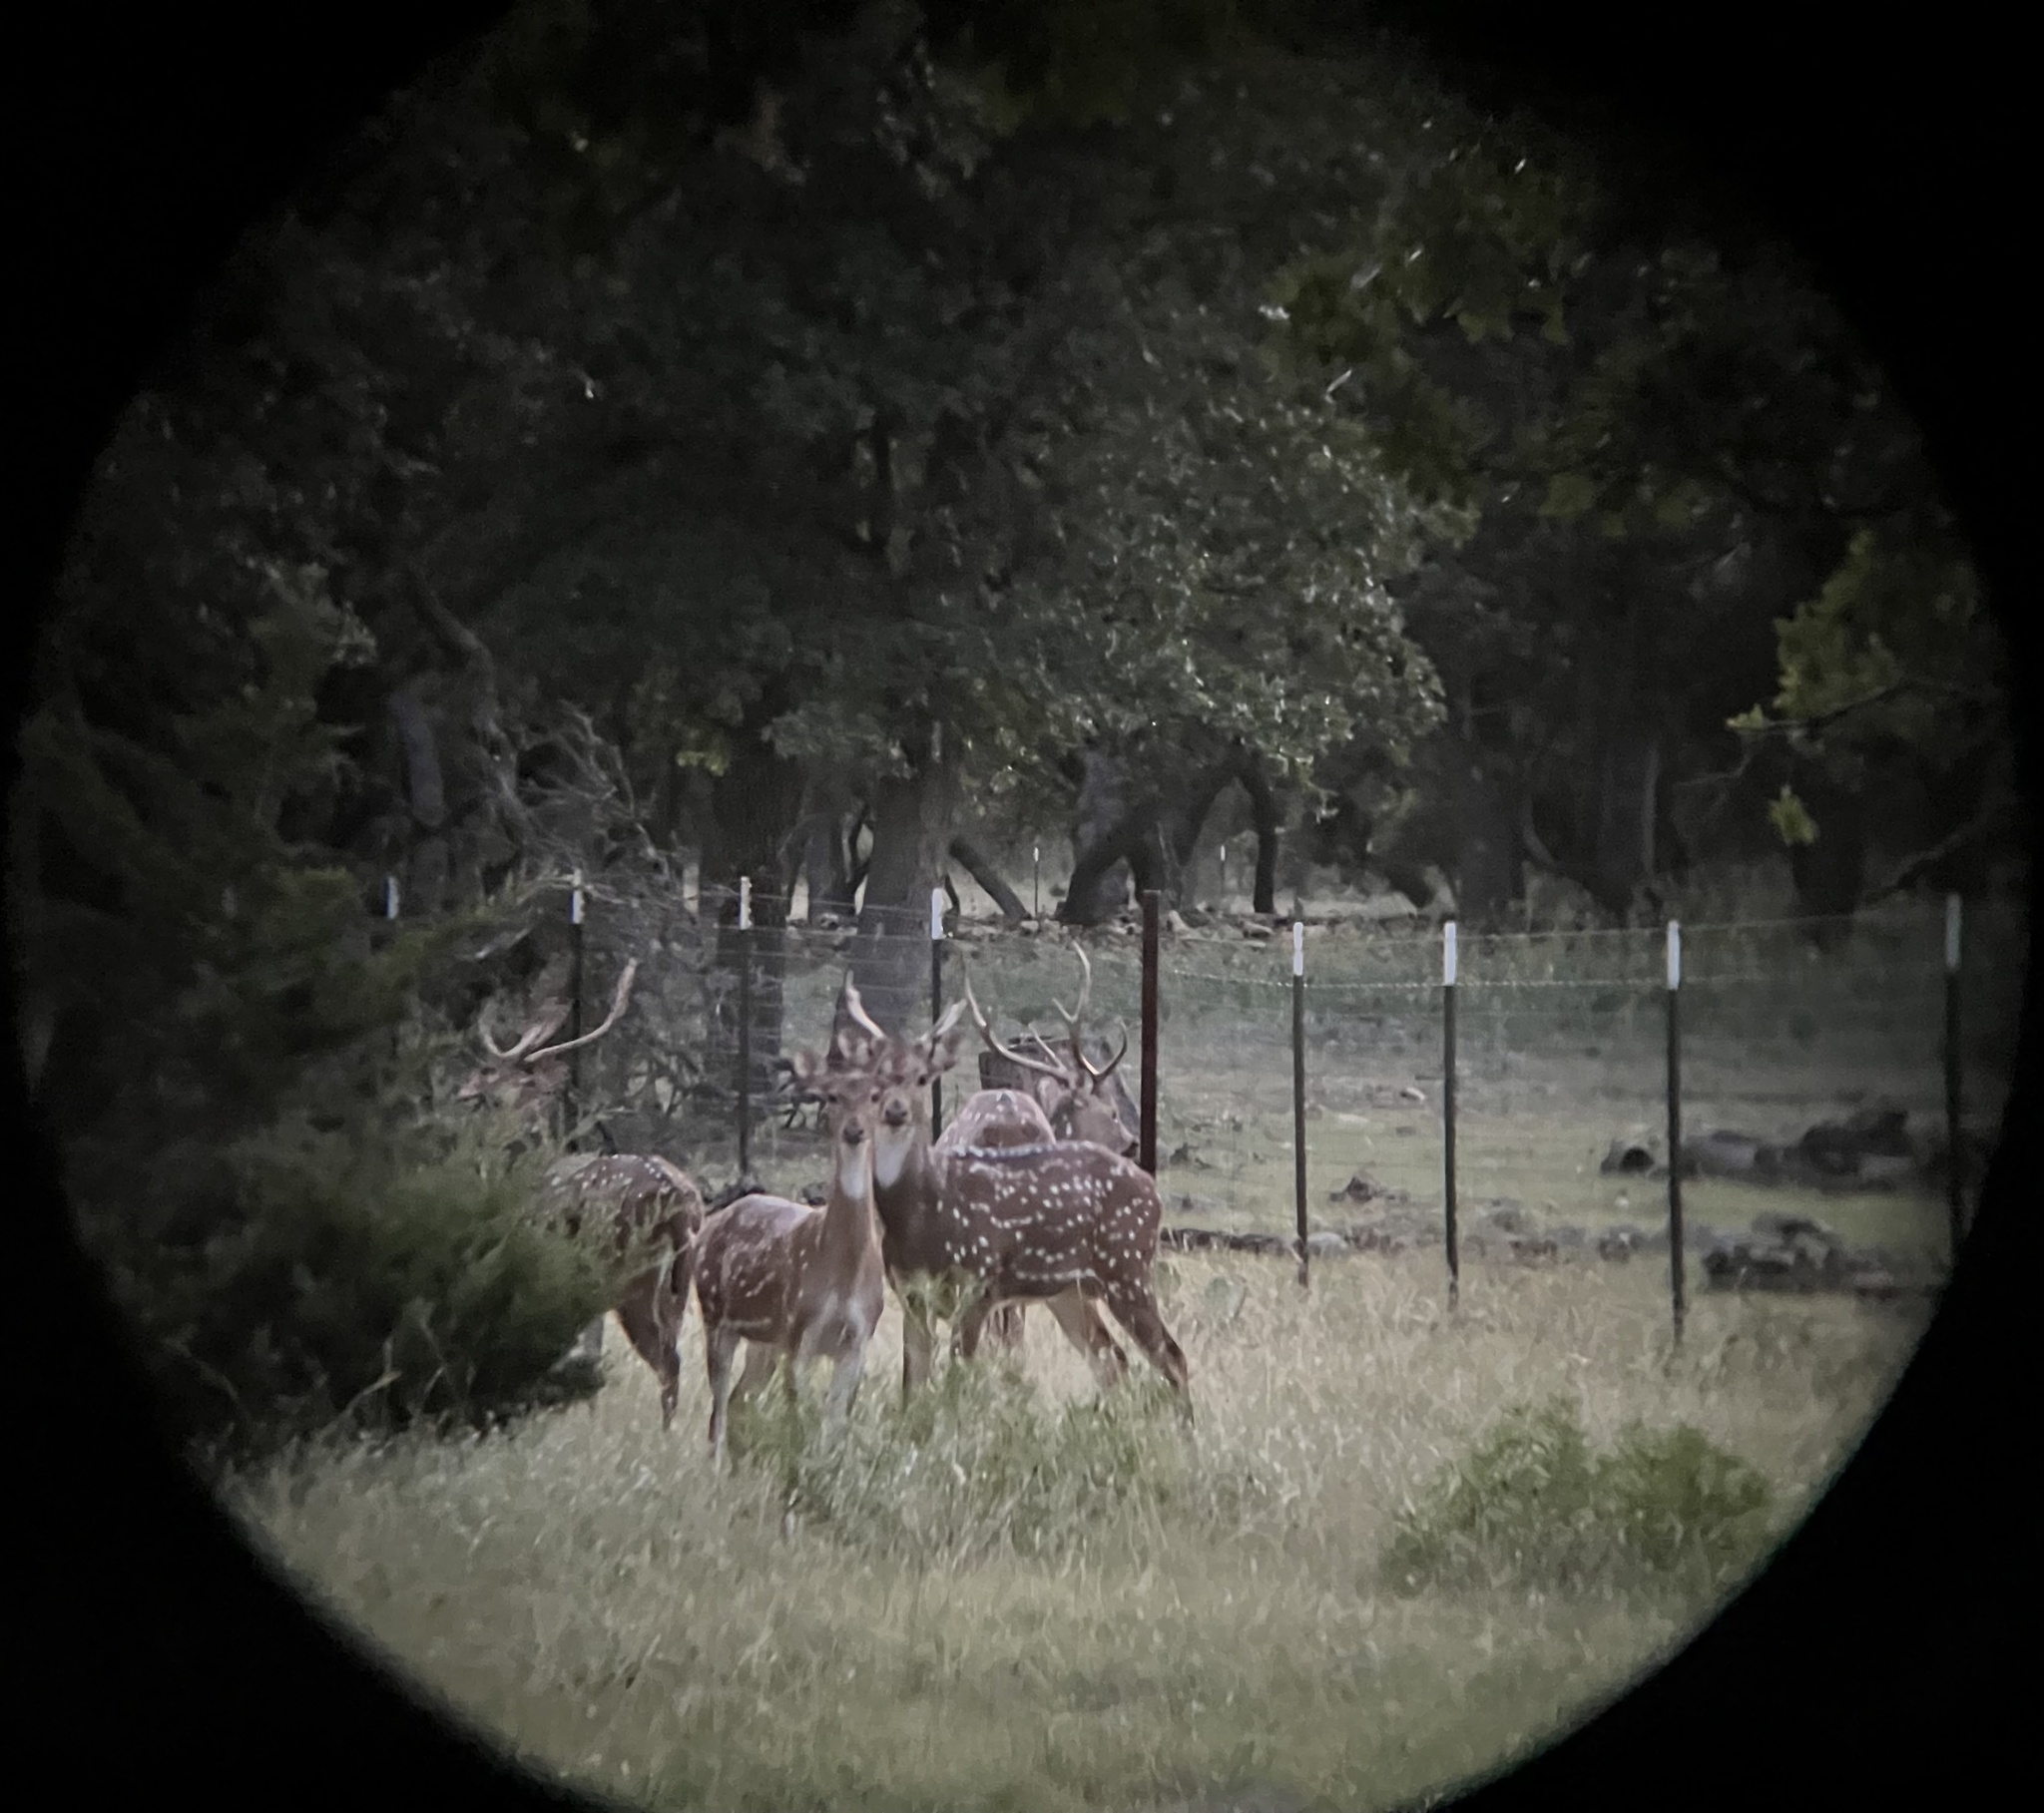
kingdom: Animalia
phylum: Chordata
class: Mammalia
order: Artiodactyla
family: Cervidae
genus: Axis
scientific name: Axis axis
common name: Chital
